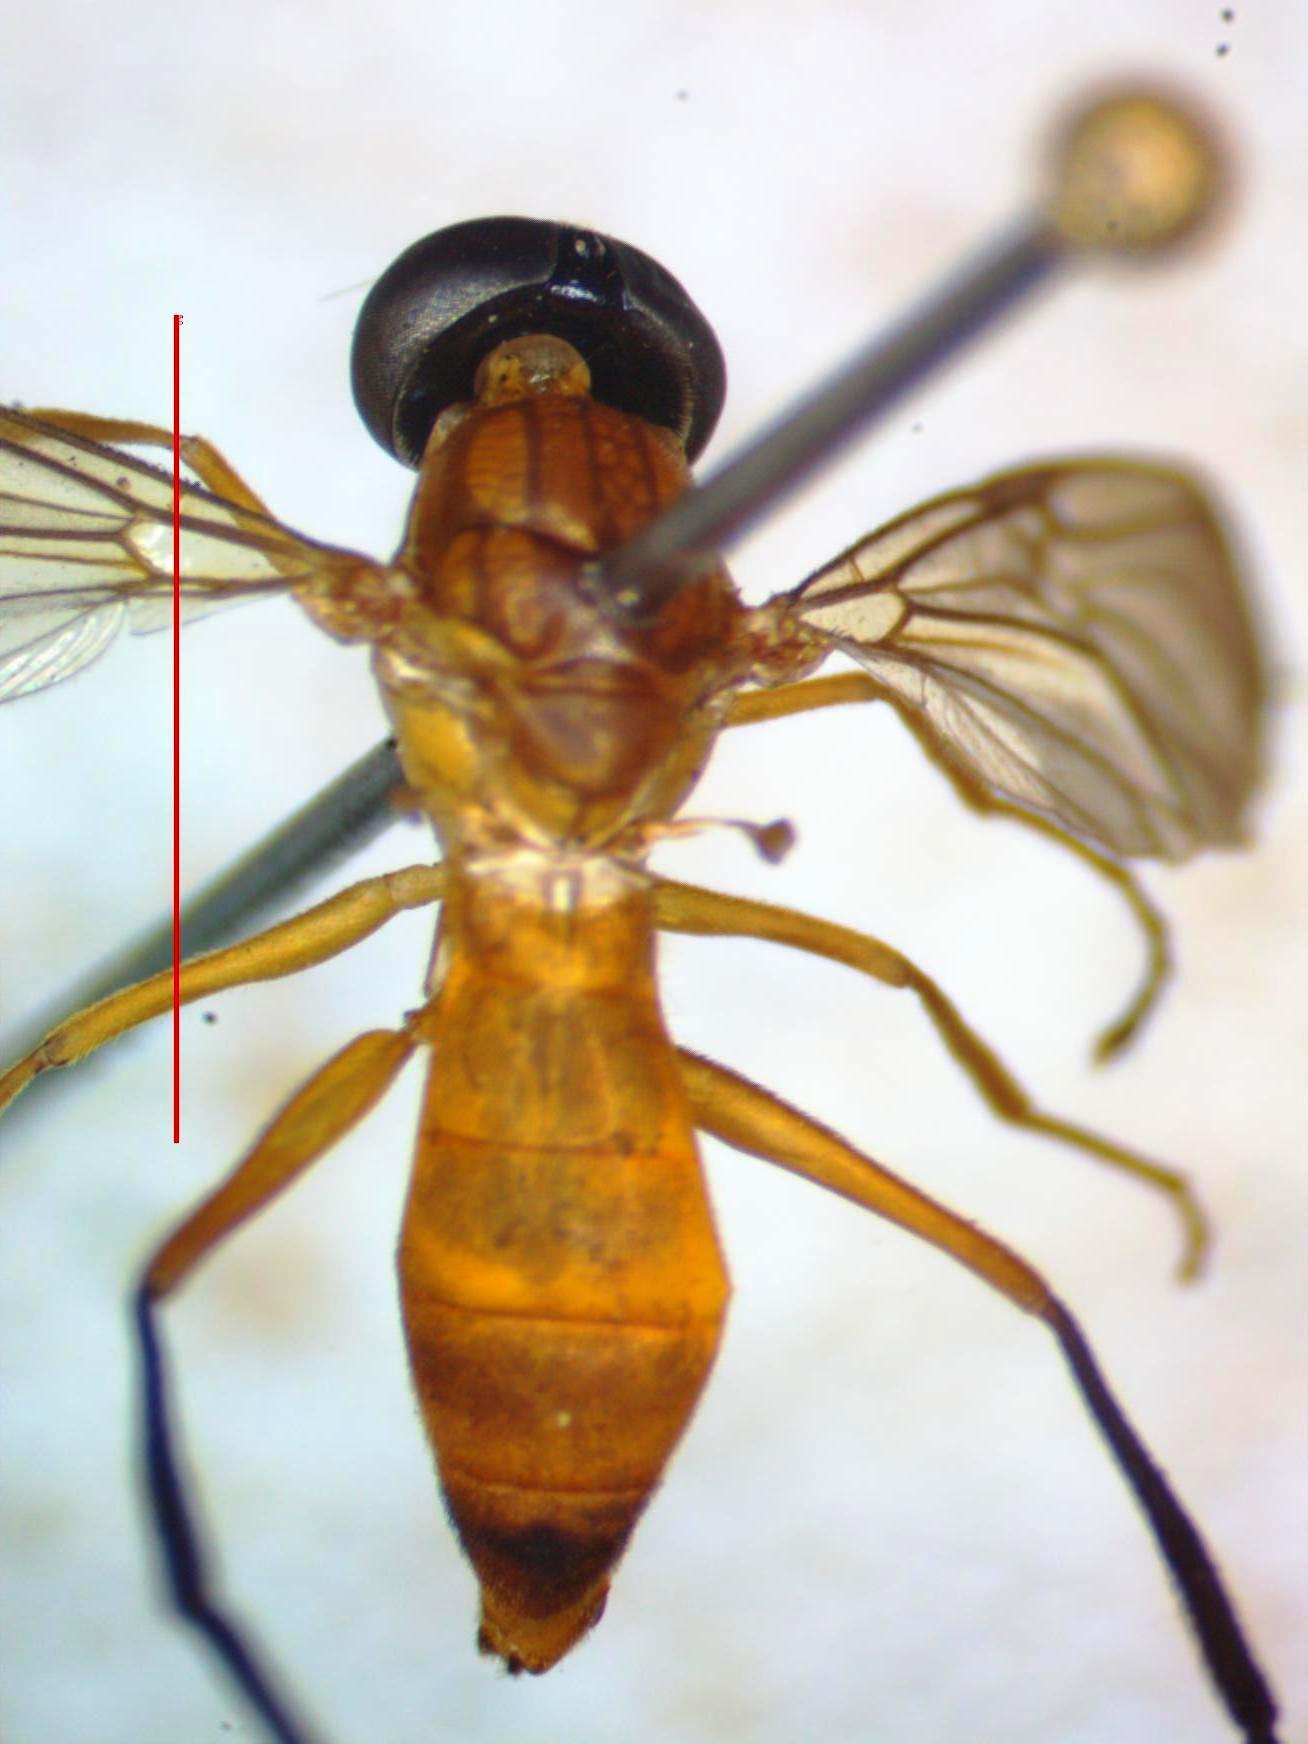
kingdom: Animalia
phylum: Arthropoda
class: Insecta
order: Diptera
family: Stratiomyidae
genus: Ptecticus
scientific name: Ptecticus nigrifrons
